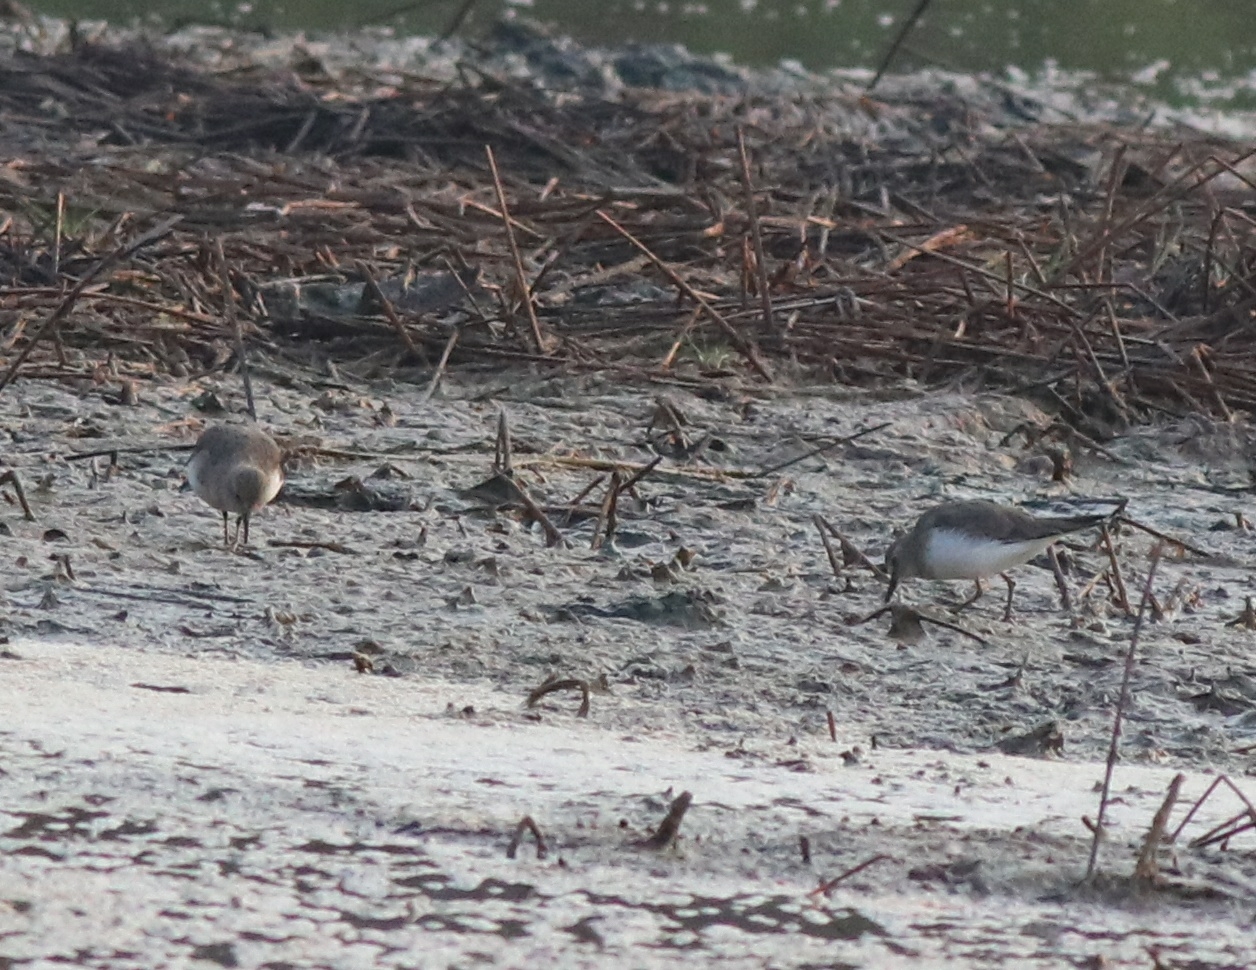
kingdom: Animalia
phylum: Chordata
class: Aves
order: Charadriiformes
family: Scolopacidae
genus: Calidris
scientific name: Calidris temminckii
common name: Temminck's stint
